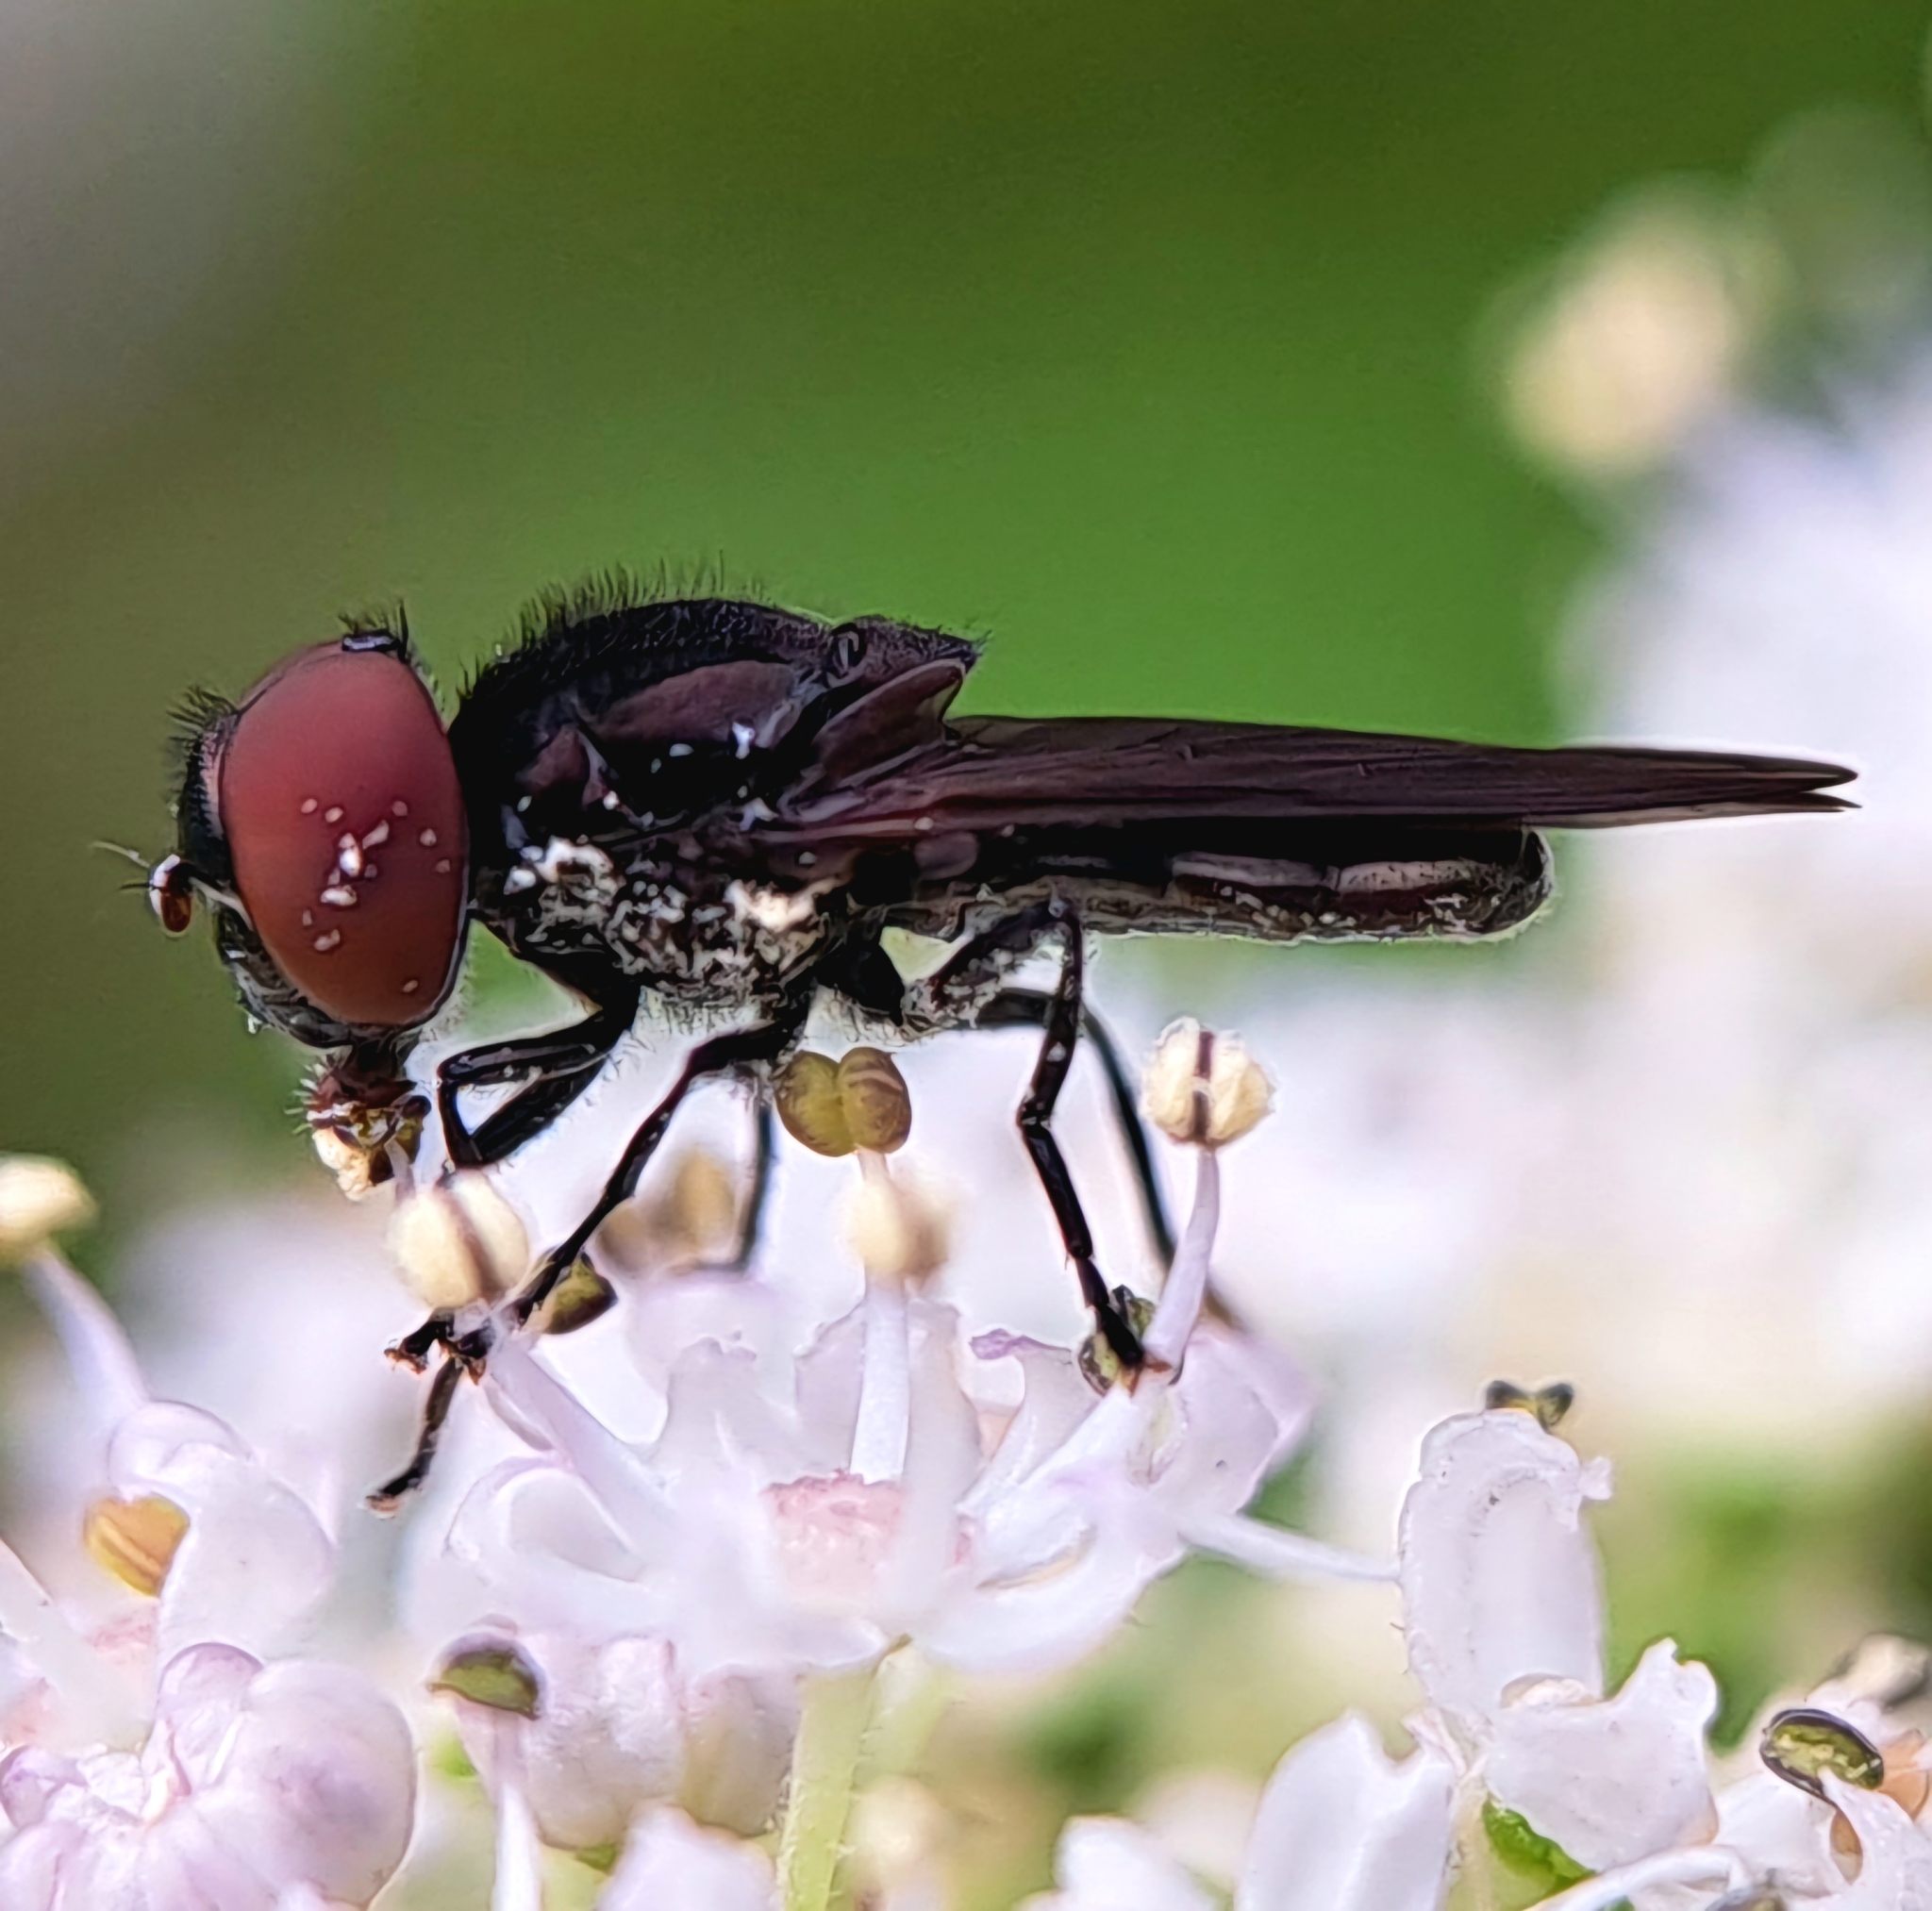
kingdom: Animalia
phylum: Arthropoda
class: Insecta
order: Diptera
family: Syrphidae
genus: Chrysogaster
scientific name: Chrysogaster solstitialis
